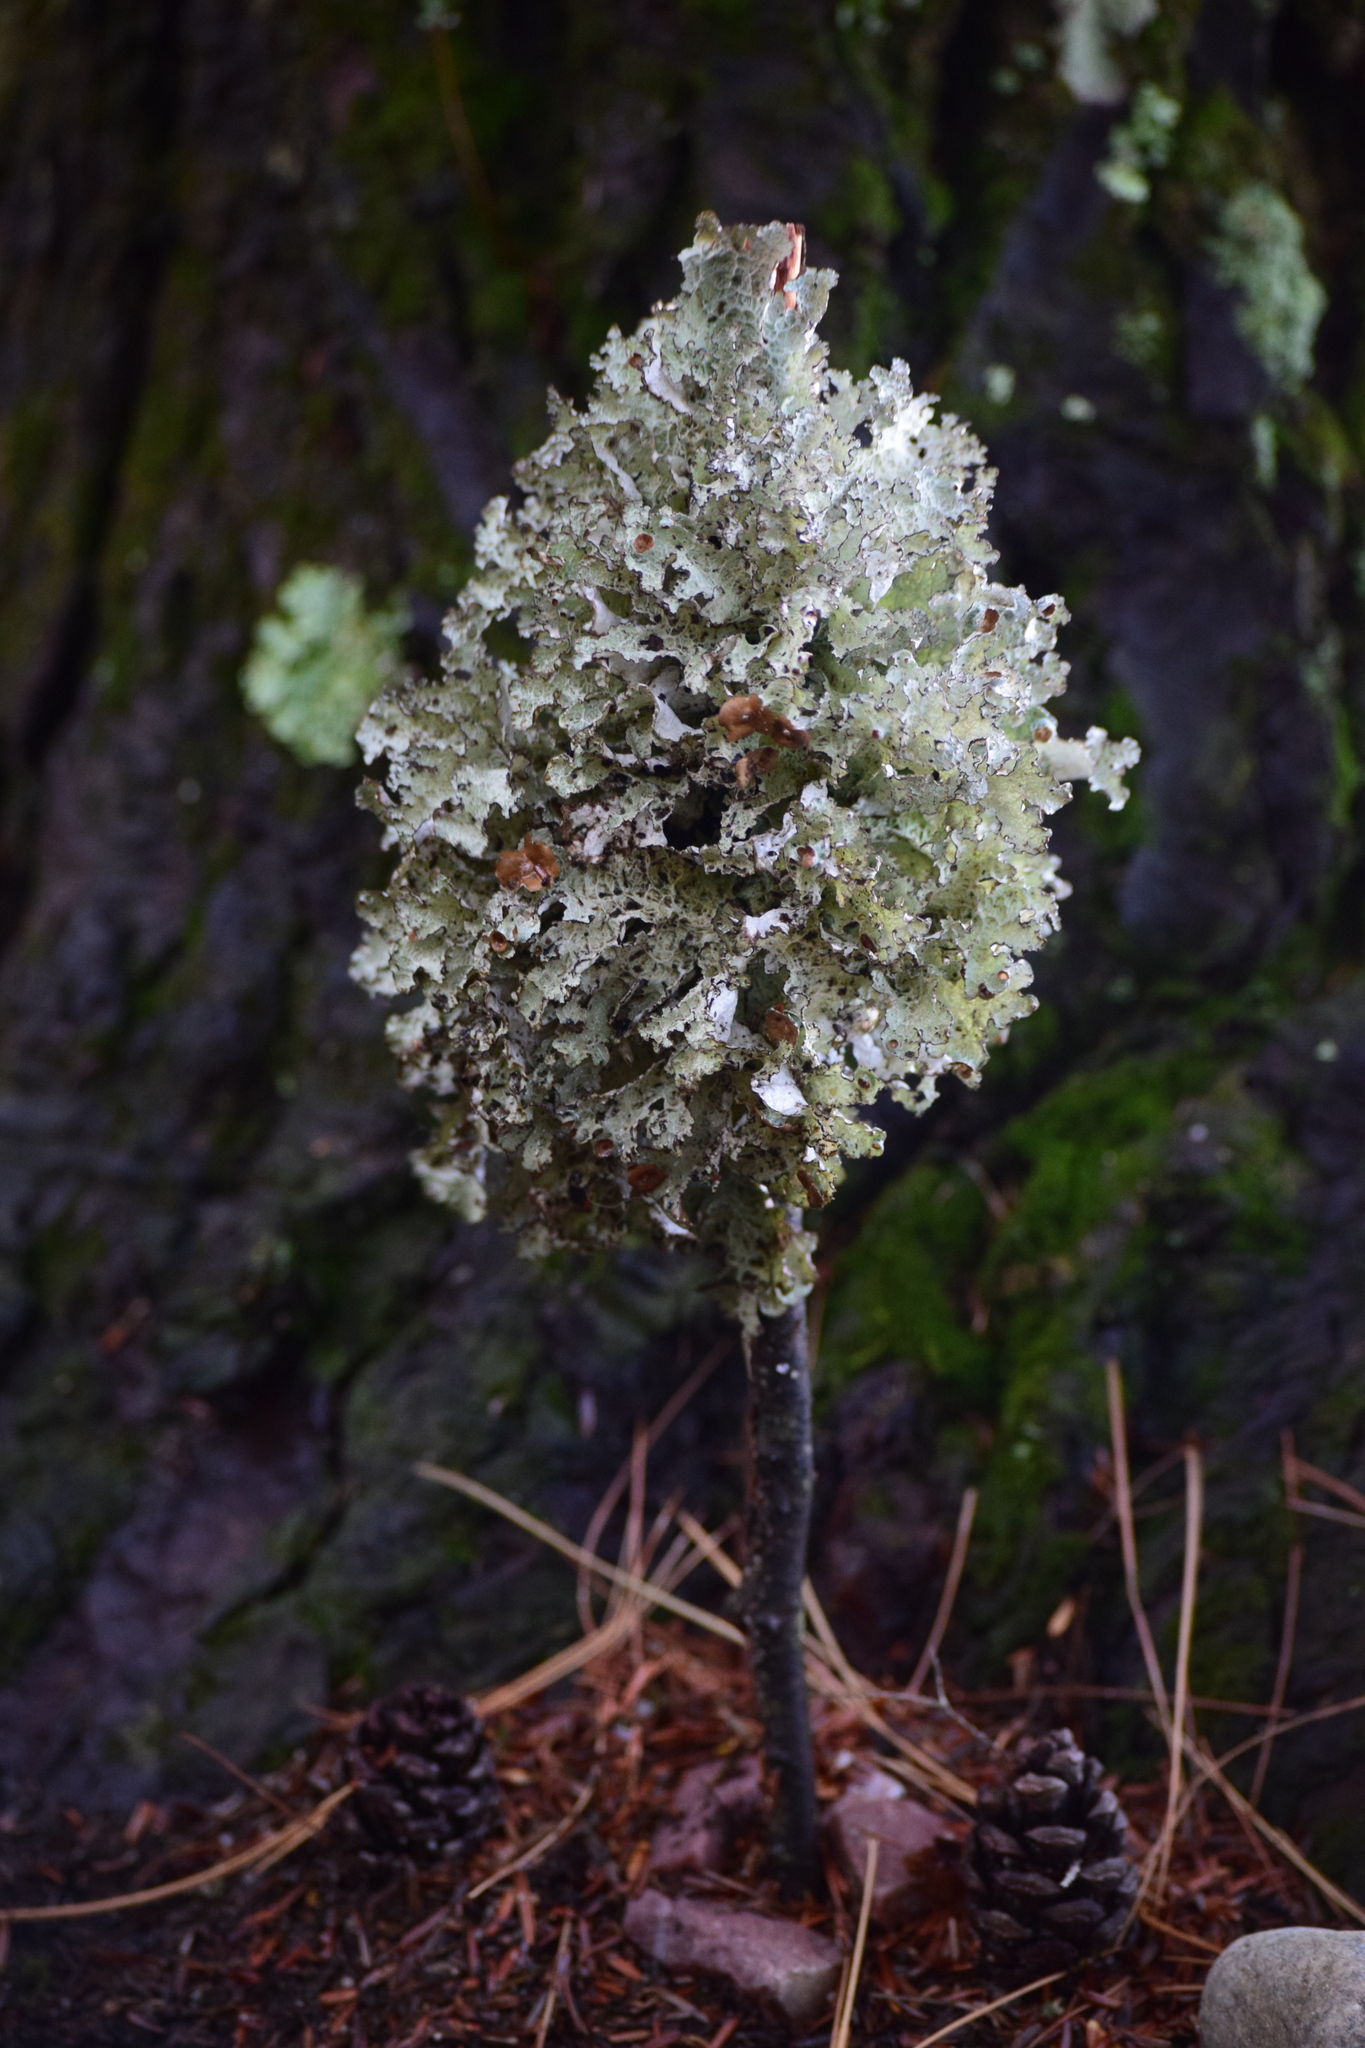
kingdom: Fungi
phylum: Ascomycota
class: Lecanoromycetes
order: Lecanorales
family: Parmeliaceae
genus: Platismatia
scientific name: Platismatia tuckermanii
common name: Crumpled rag lichen
